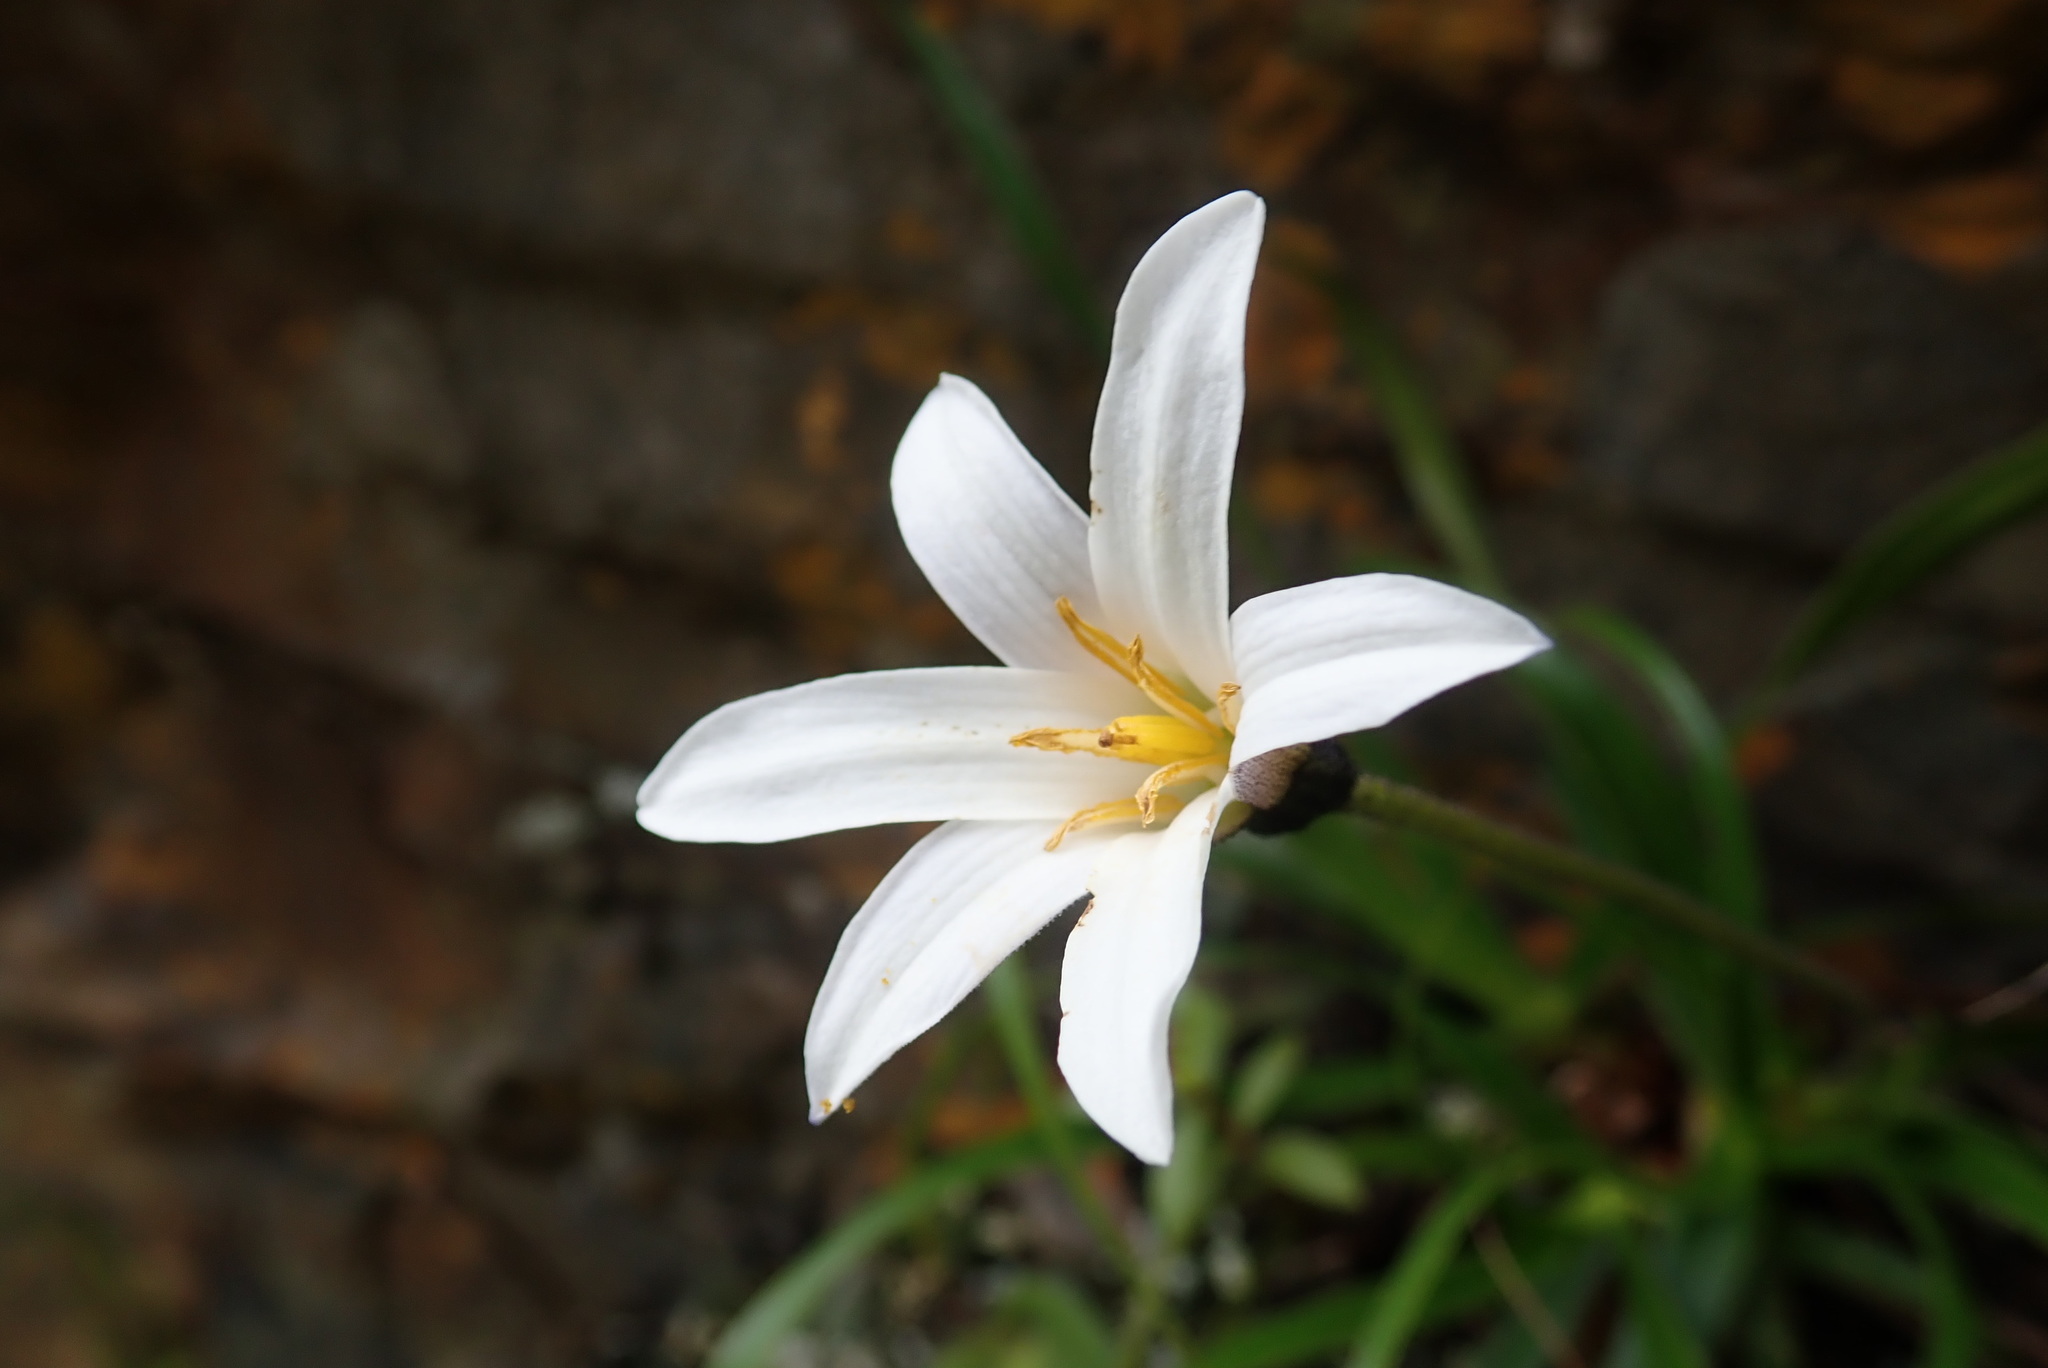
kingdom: Plantae
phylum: Tracheophyta
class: Liliopsida
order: Pandanales
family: Velloziaceae
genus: Xerophyta
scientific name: Xerophyta viscosa
